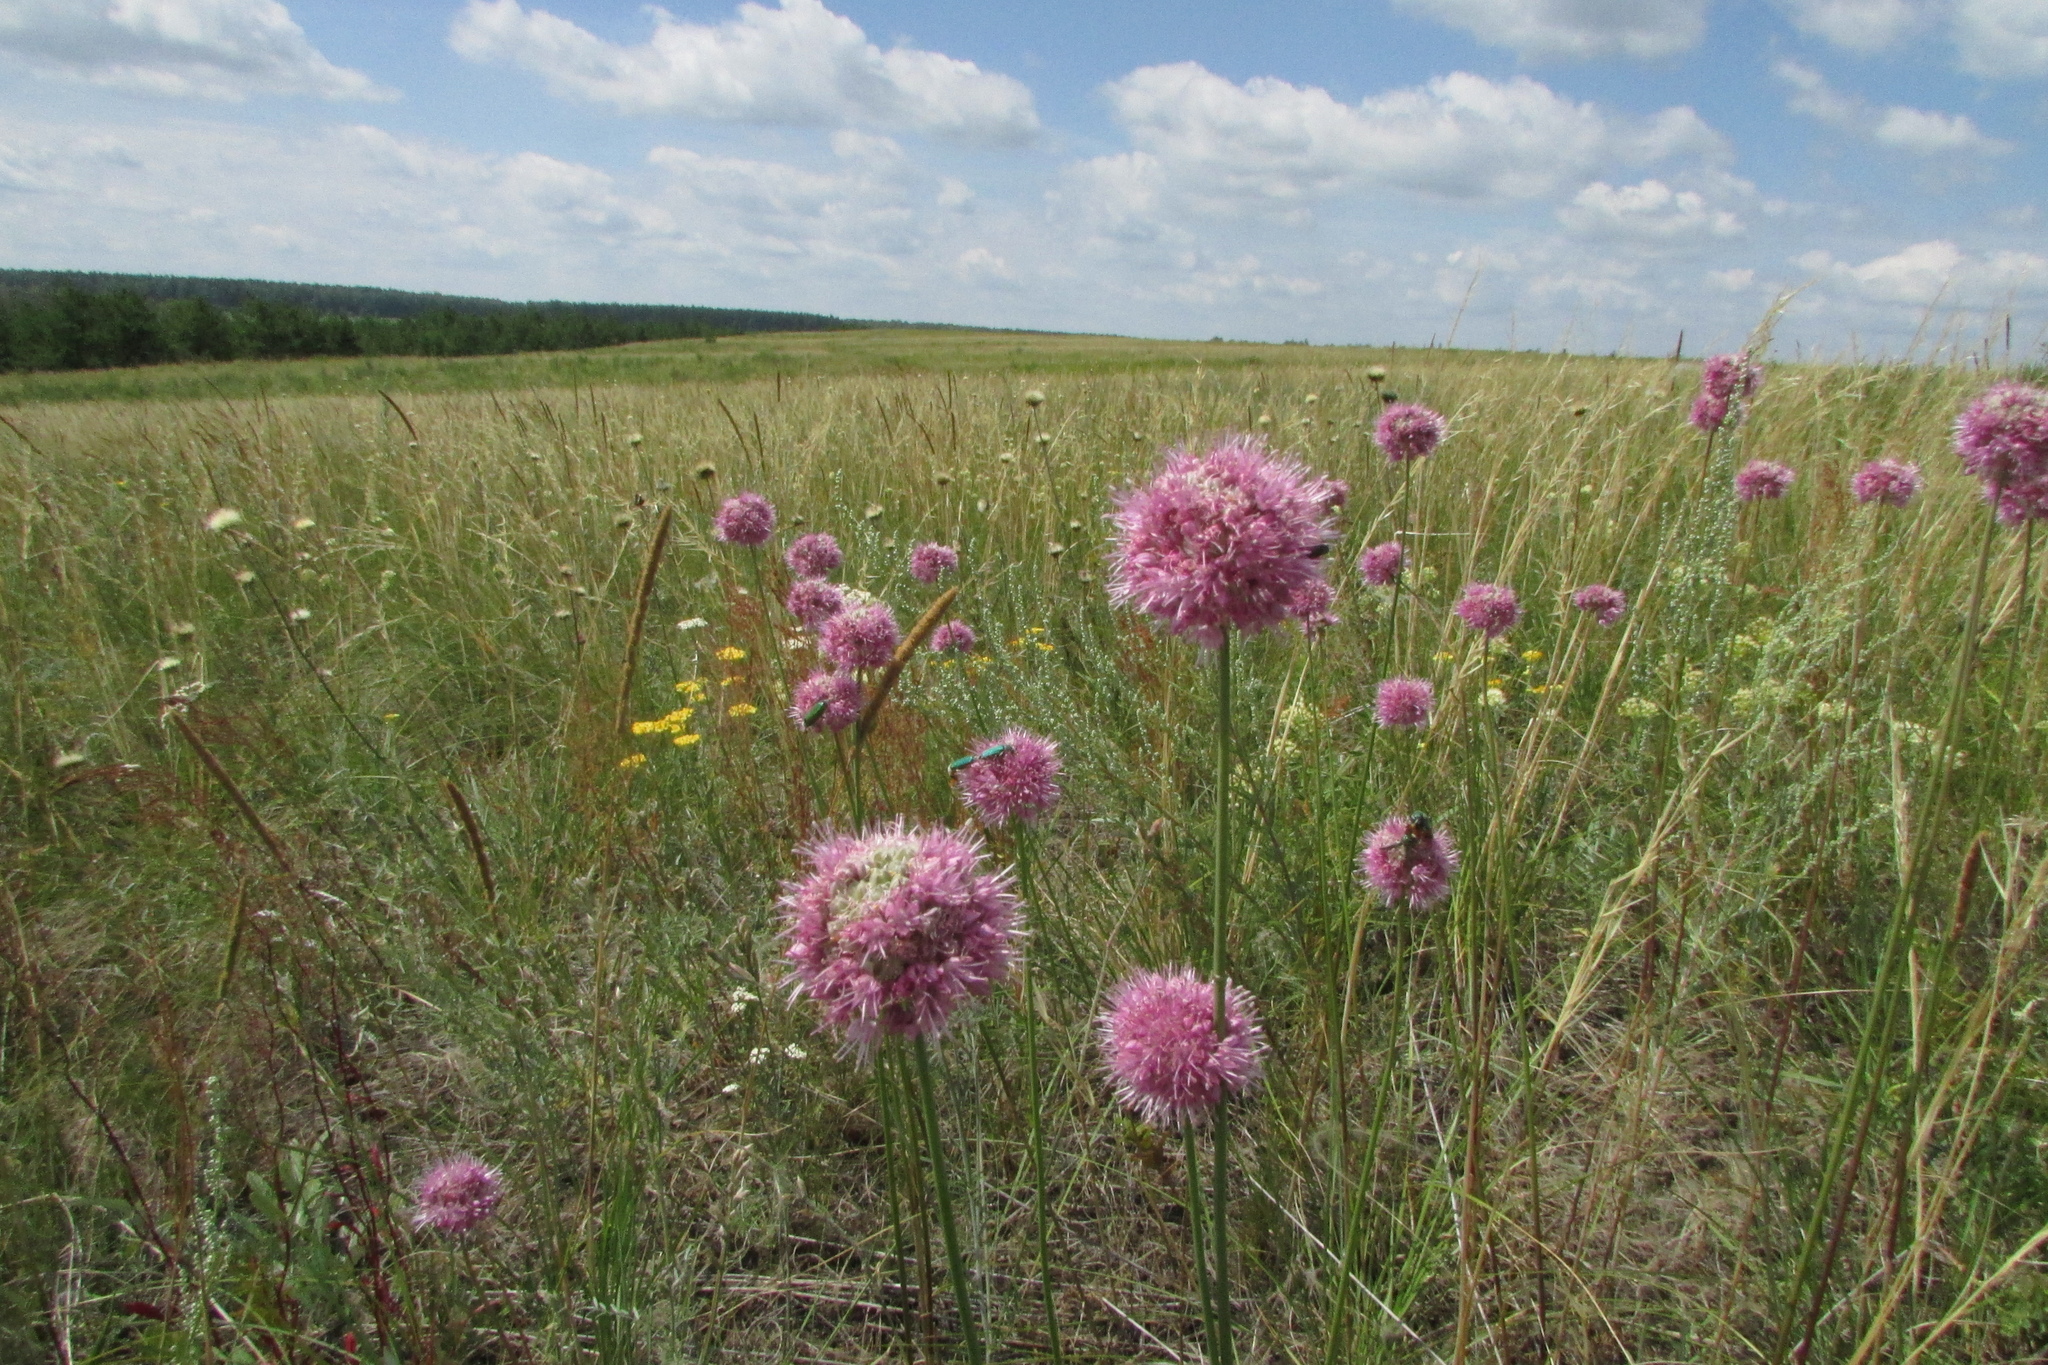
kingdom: Plantae
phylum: Tracheophyta
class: Liliopsida
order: Asparagales
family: Amaryllidaceae
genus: Allium
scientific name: Allium lineare
